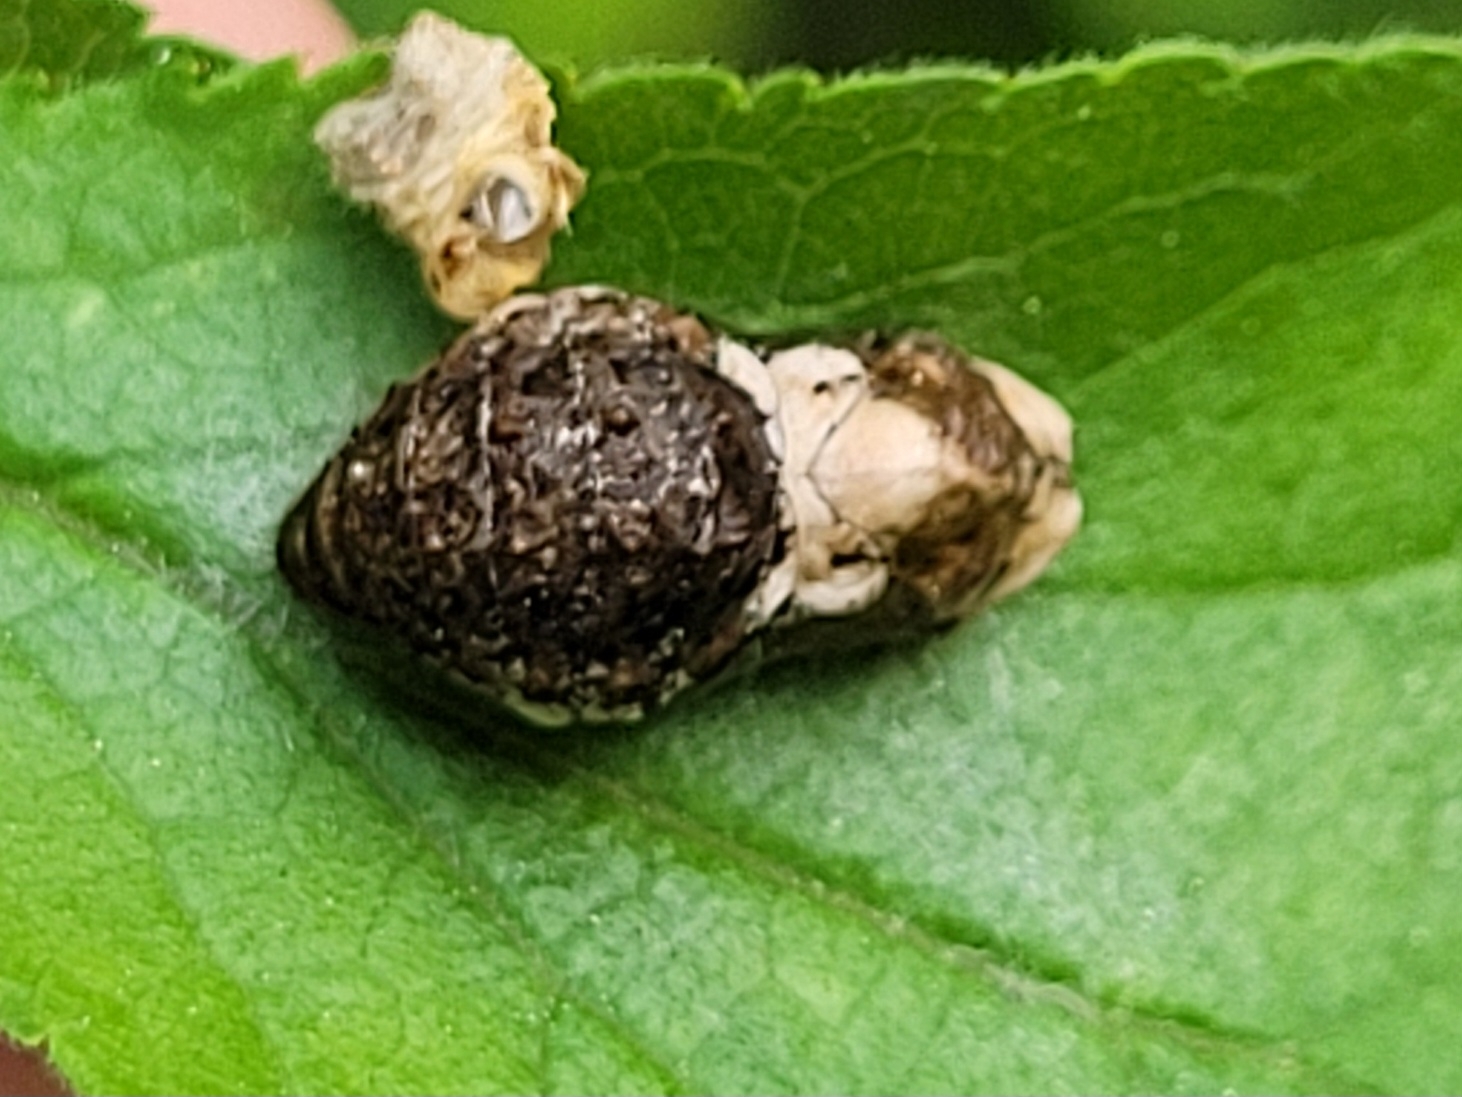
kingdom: Animalia
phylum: Arthropoda
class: Insecta
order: Lepidoptera
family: Lycaenidae
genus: Fixsenia
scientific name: Fixsenia pruni
